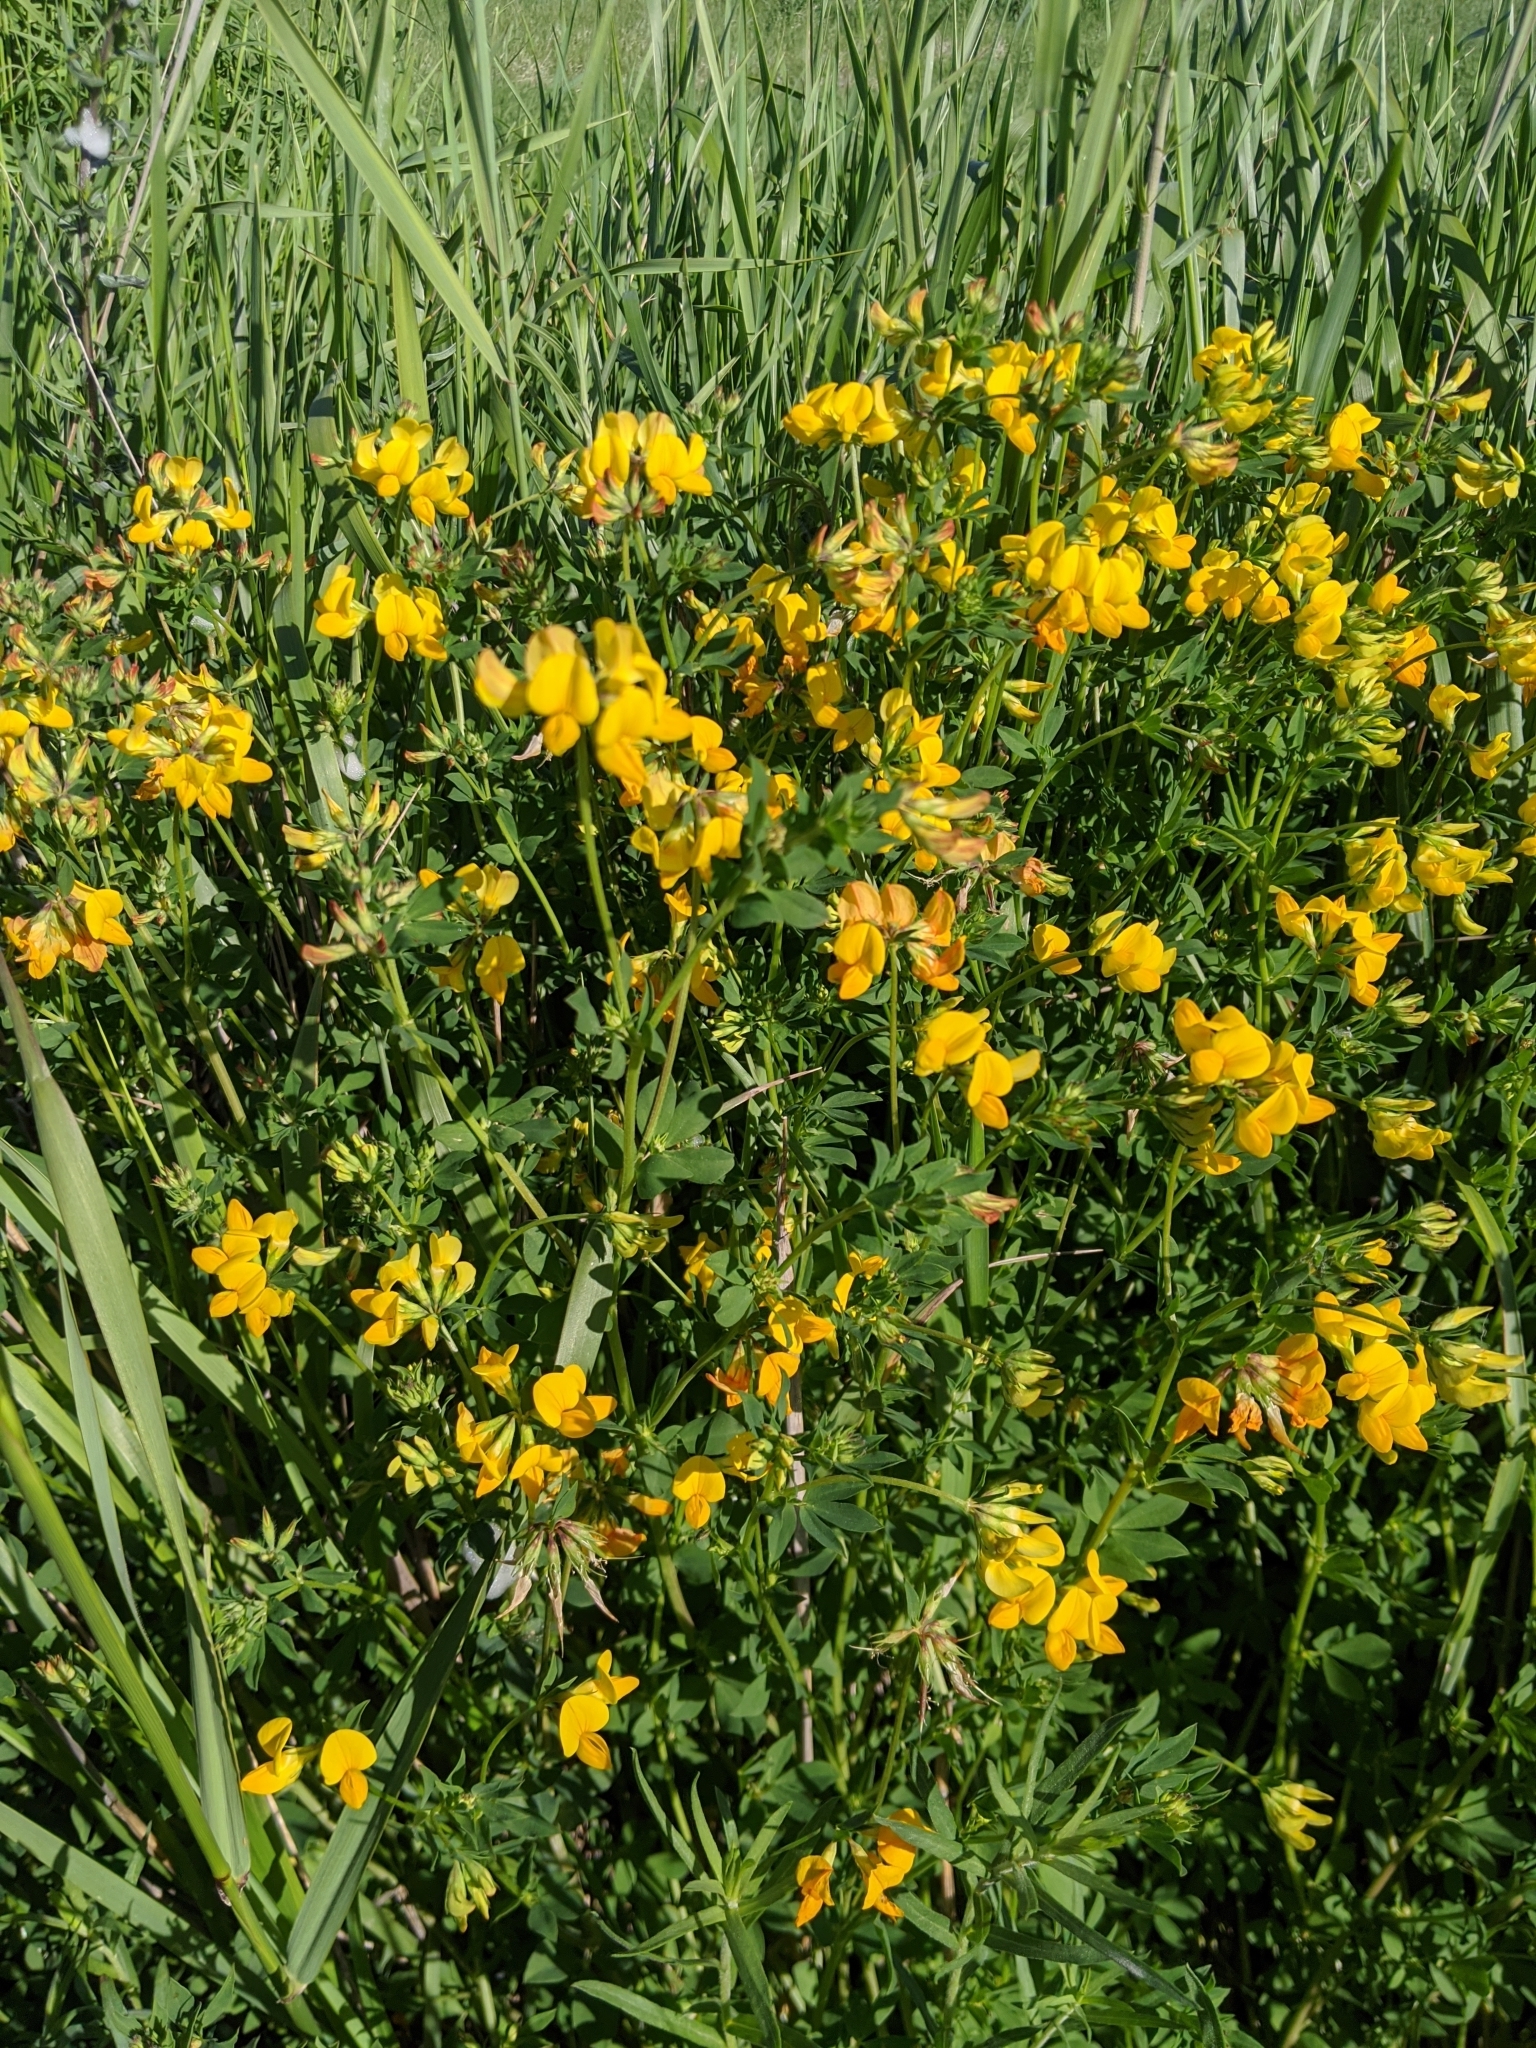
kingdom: Plantae
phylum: Tracheophyta
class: Magnoliopsida
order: Fabales
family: Fabaceae
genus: Lotus
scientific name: Lotus corniculatus
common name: Common bird's-foot-trefoil
